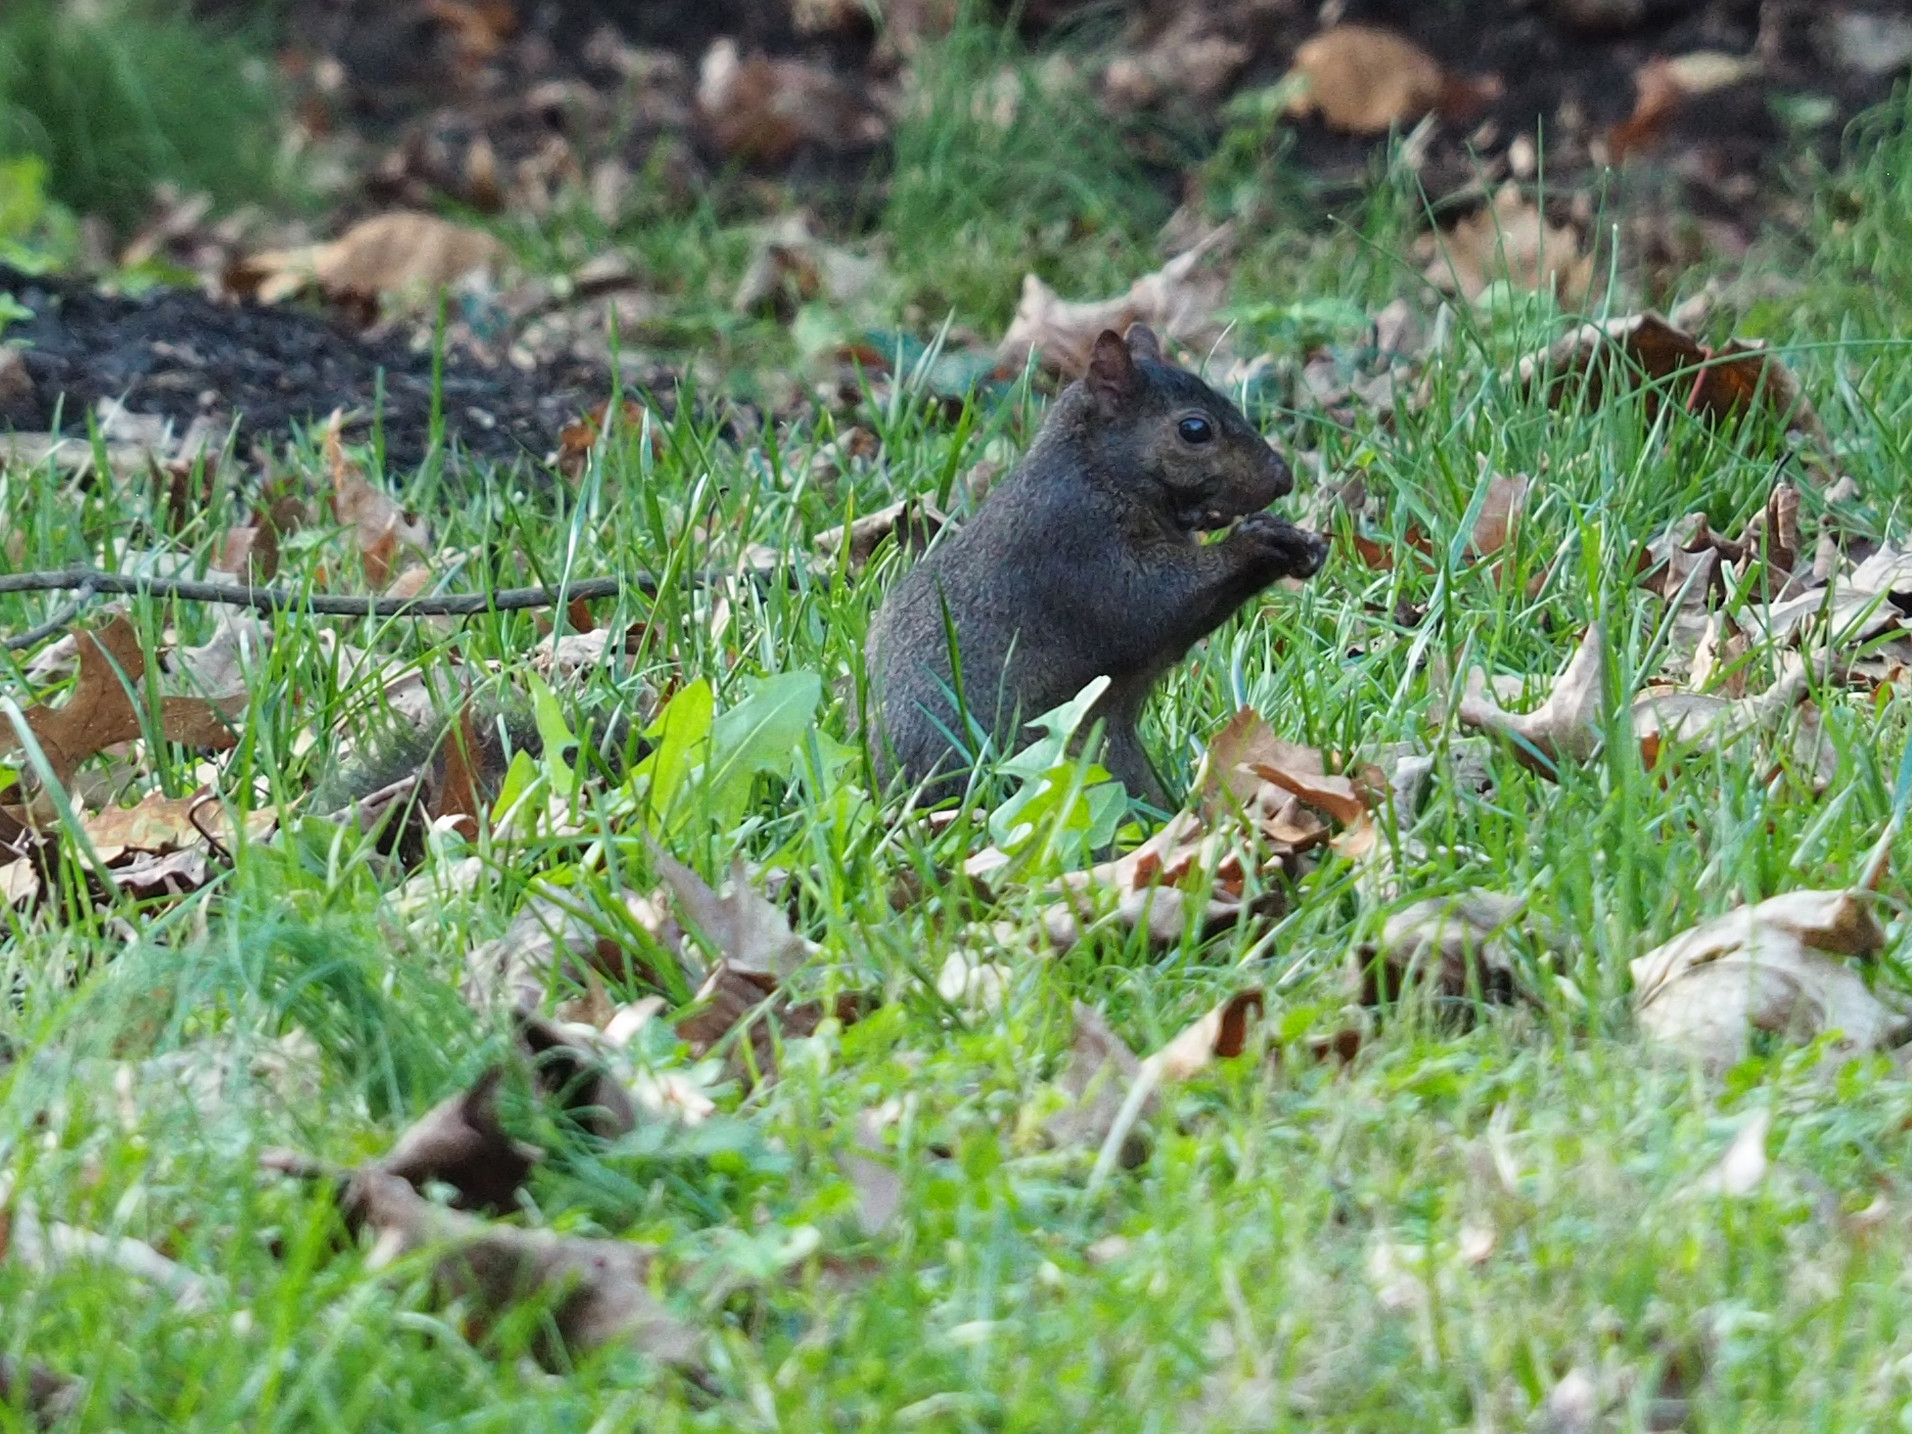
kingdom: Animalia
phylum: Chordata
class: Mammalia
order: Rodentia
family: Sciuridae
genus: Sciurus
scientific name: Sciurus carolinensis
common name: Eastern gray squirrel
